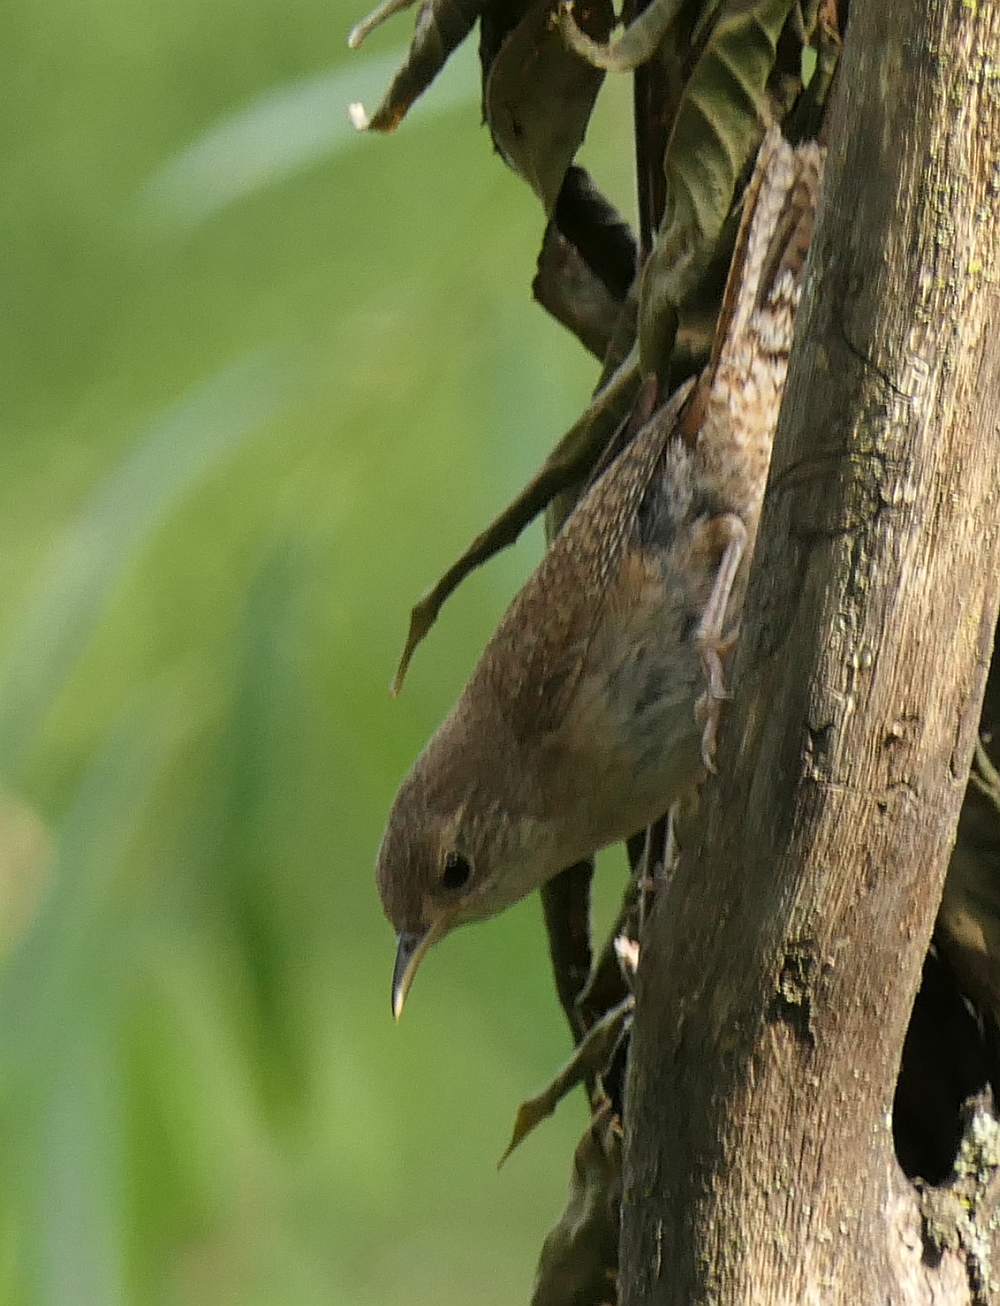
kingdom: Animalia
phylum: Chordata
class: Aves
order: Passeriformes
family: Troglodytidae
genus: Troglodytes
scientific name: Troglodytes aedon
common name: House wren
